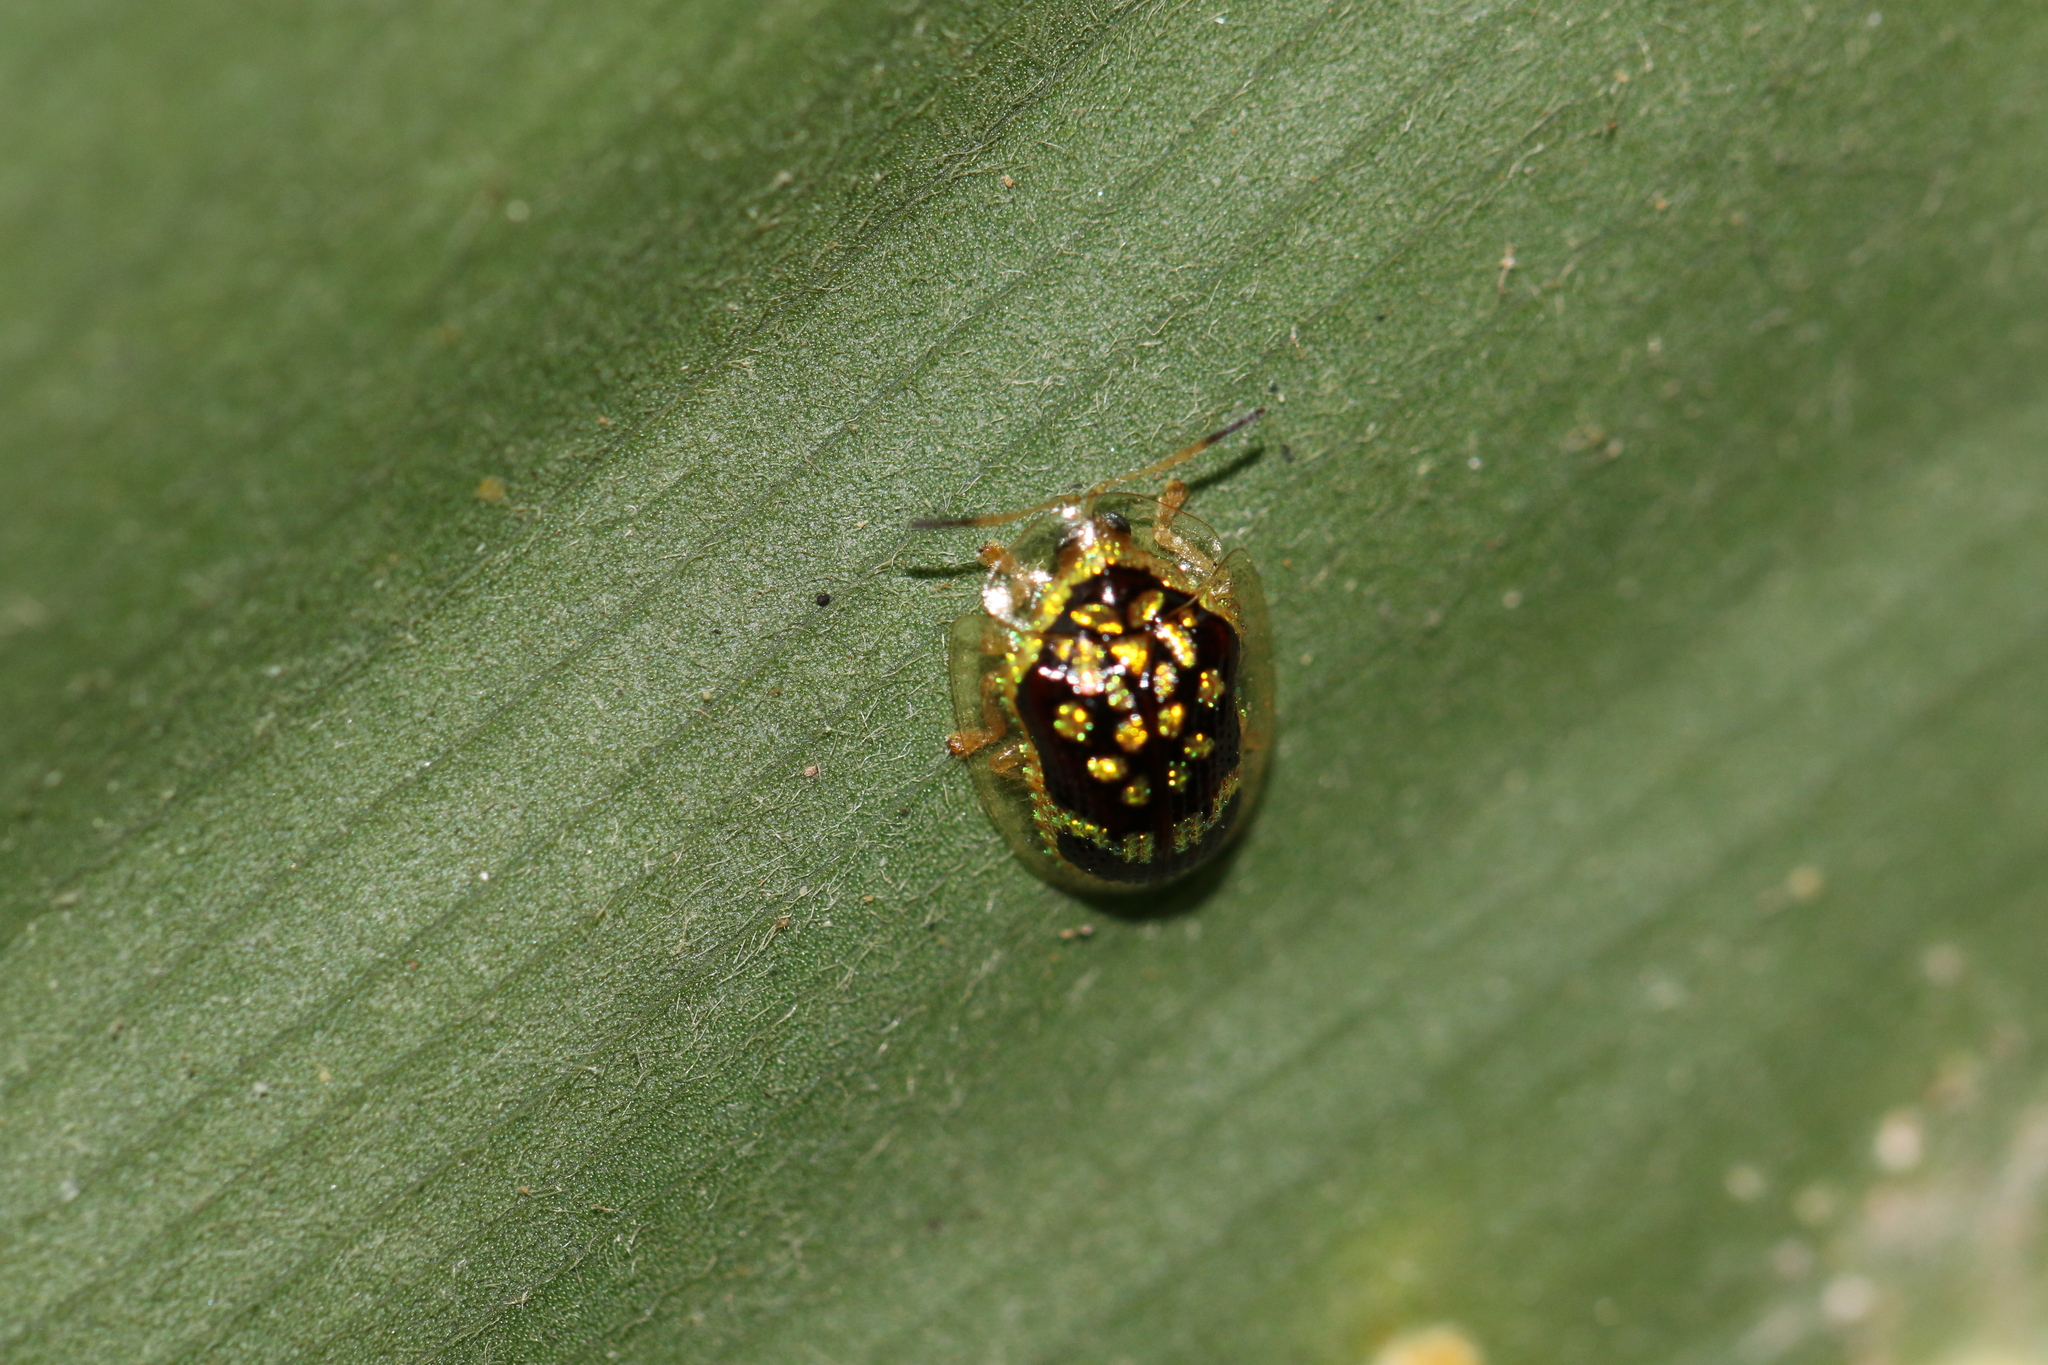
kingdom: Animalia
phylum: Arthropoda
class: Insecta
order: Coleoptera
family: Chrysomelidae
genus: Microctenochira
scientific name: Microctenochira brasiliensis
